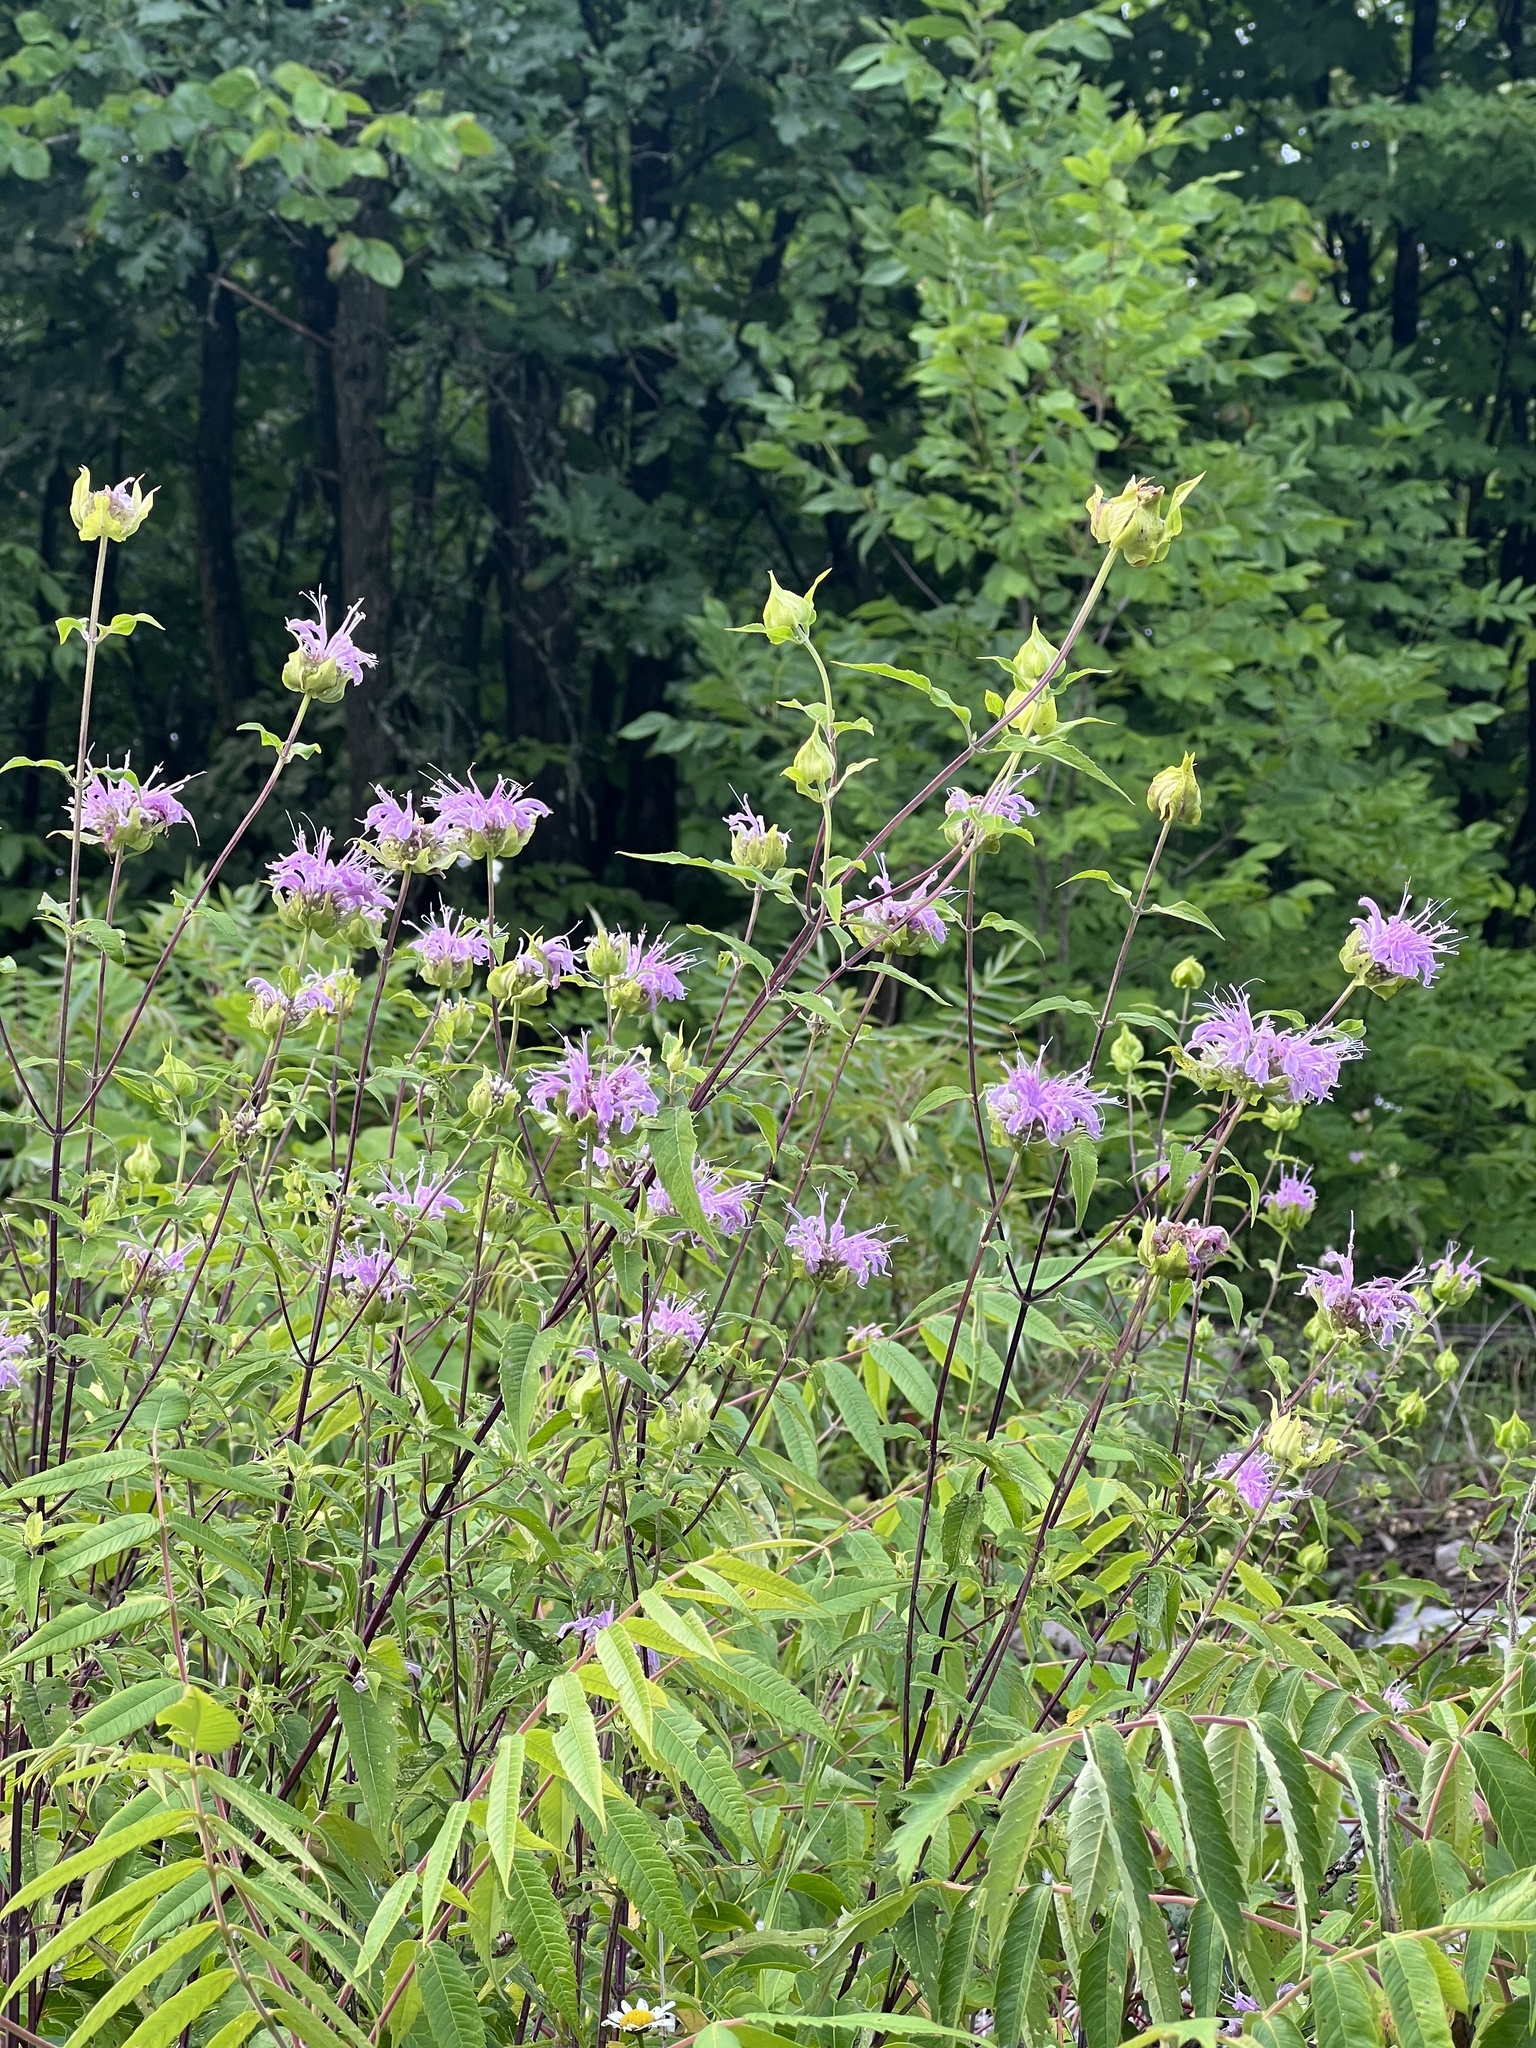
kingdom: Plantae
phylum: Tracheophyta
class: Magnoliopsida
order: Lamiales
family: Lamiaceae
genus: Monarda
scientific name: Monarda fistulosa
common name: Purple beebalm
